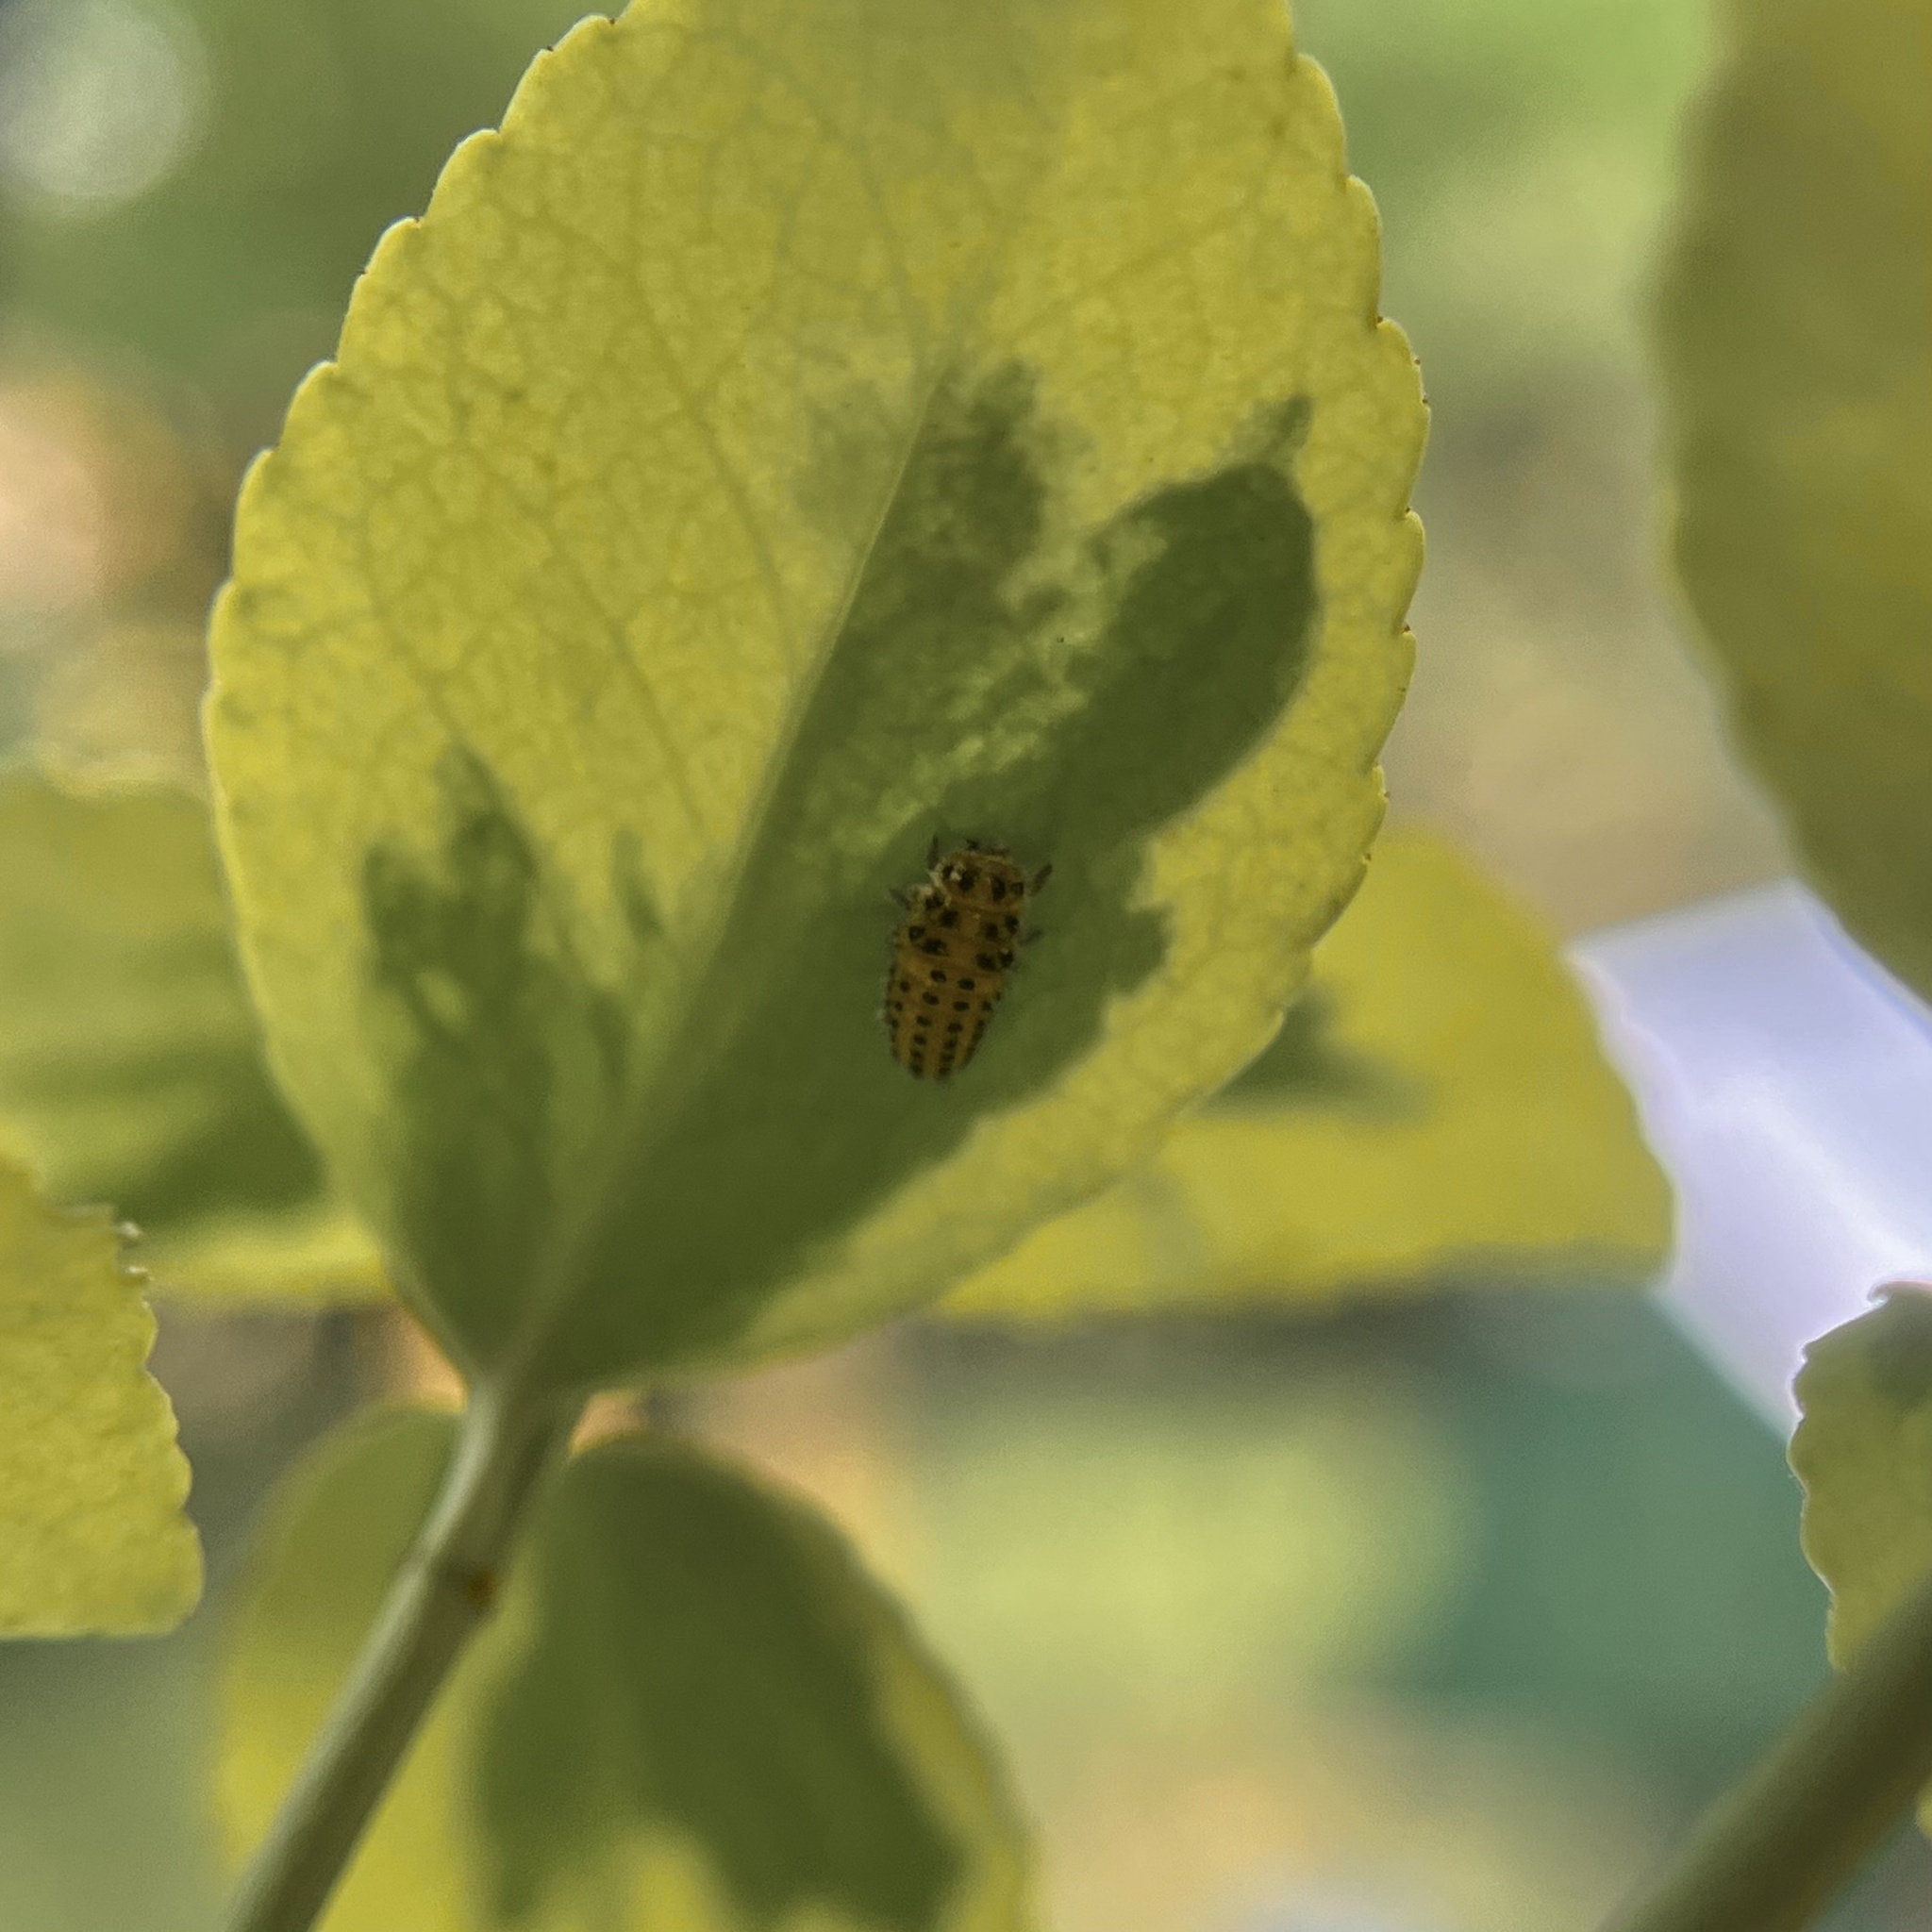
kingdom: Animalia
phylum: Arthropoda
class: Insecta
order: Coleoptera
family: Coccinellidae
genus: Psyllobora
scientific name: Psyllobora vigintiduopunctata
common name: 22-spot ladybird
